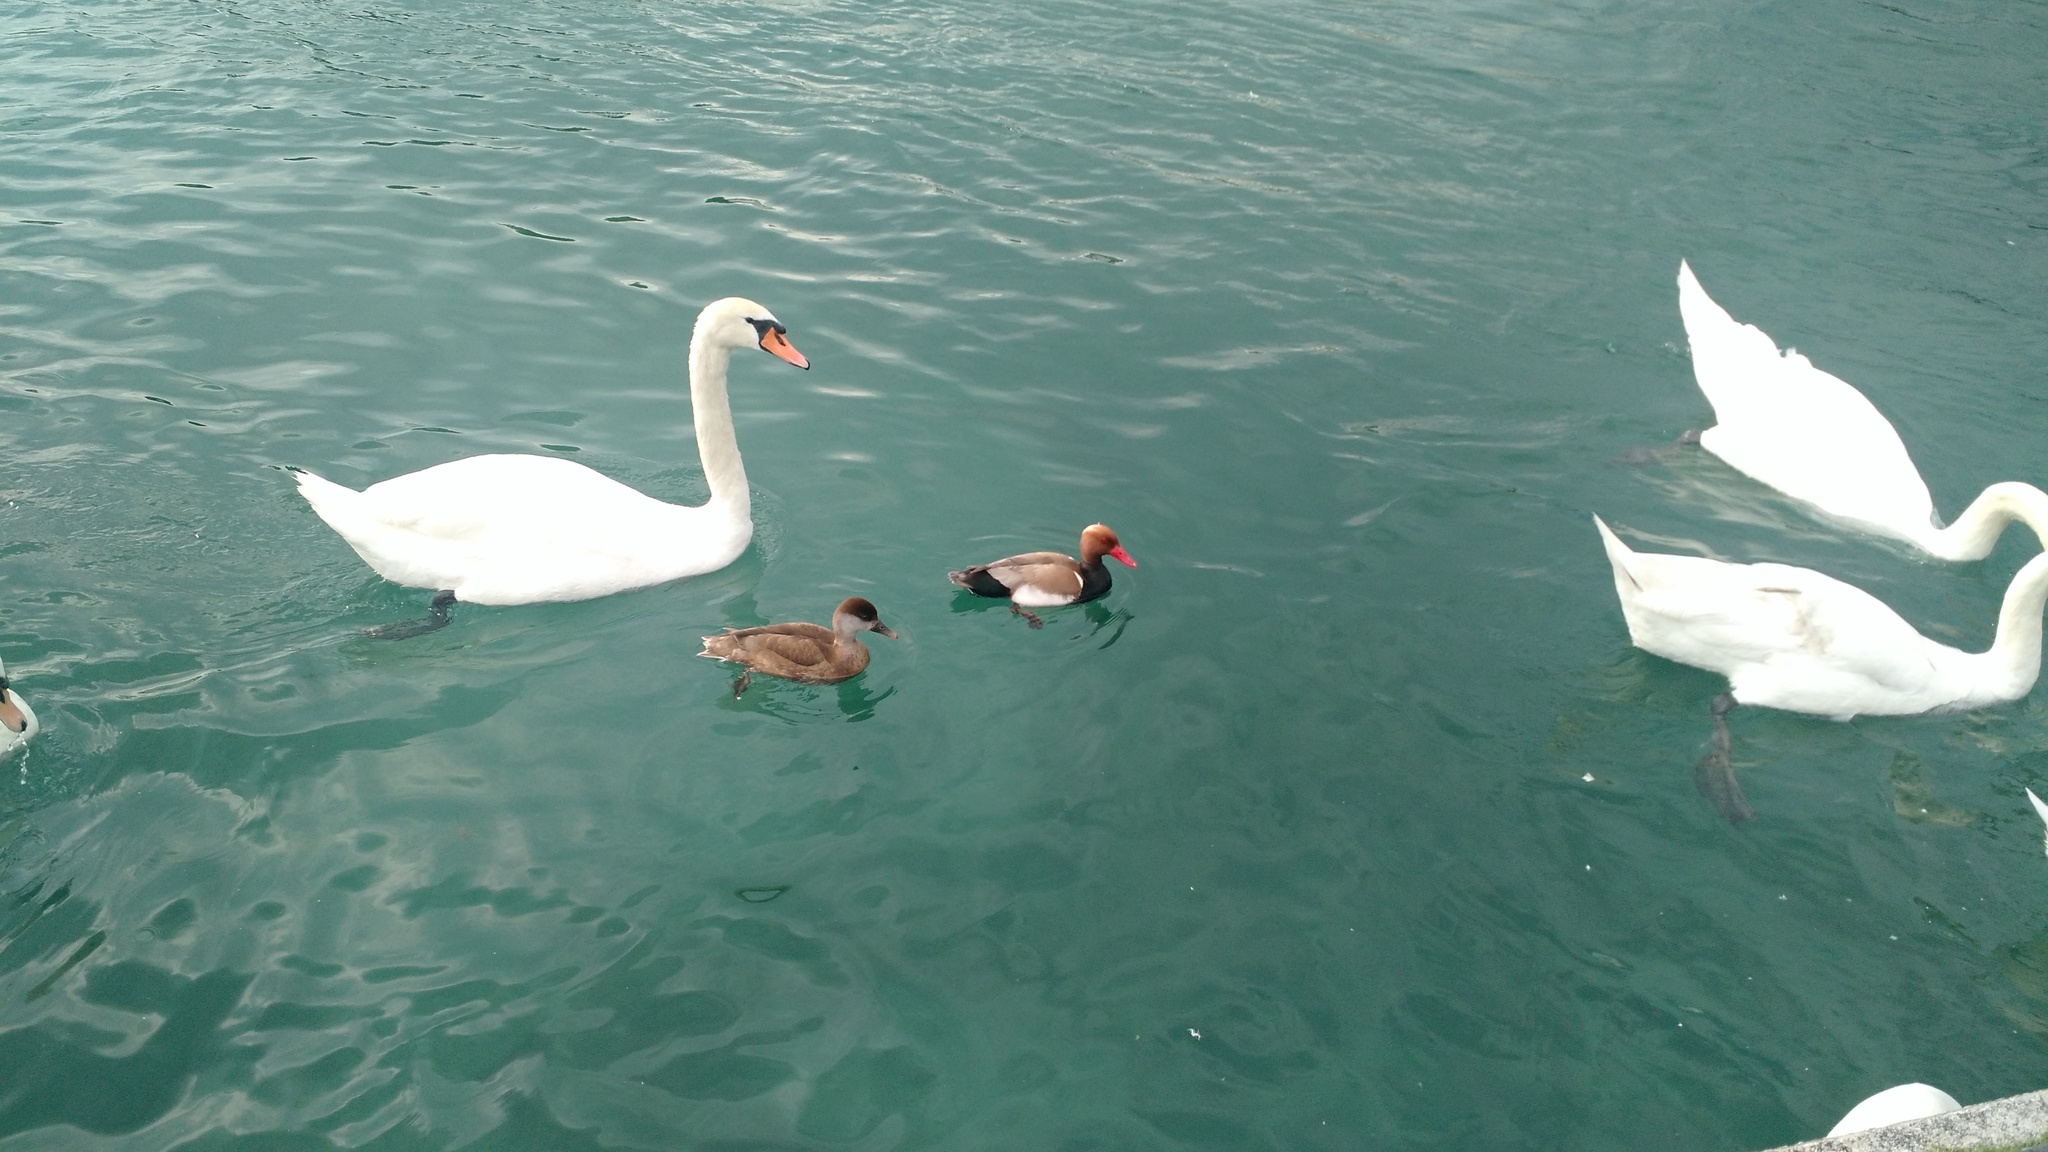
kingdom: Animalia
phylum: Chordata
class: Aves
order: Anseriformes
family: Anatidae
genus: Cygnus
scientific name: Cygnus olor
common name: Mute swan
